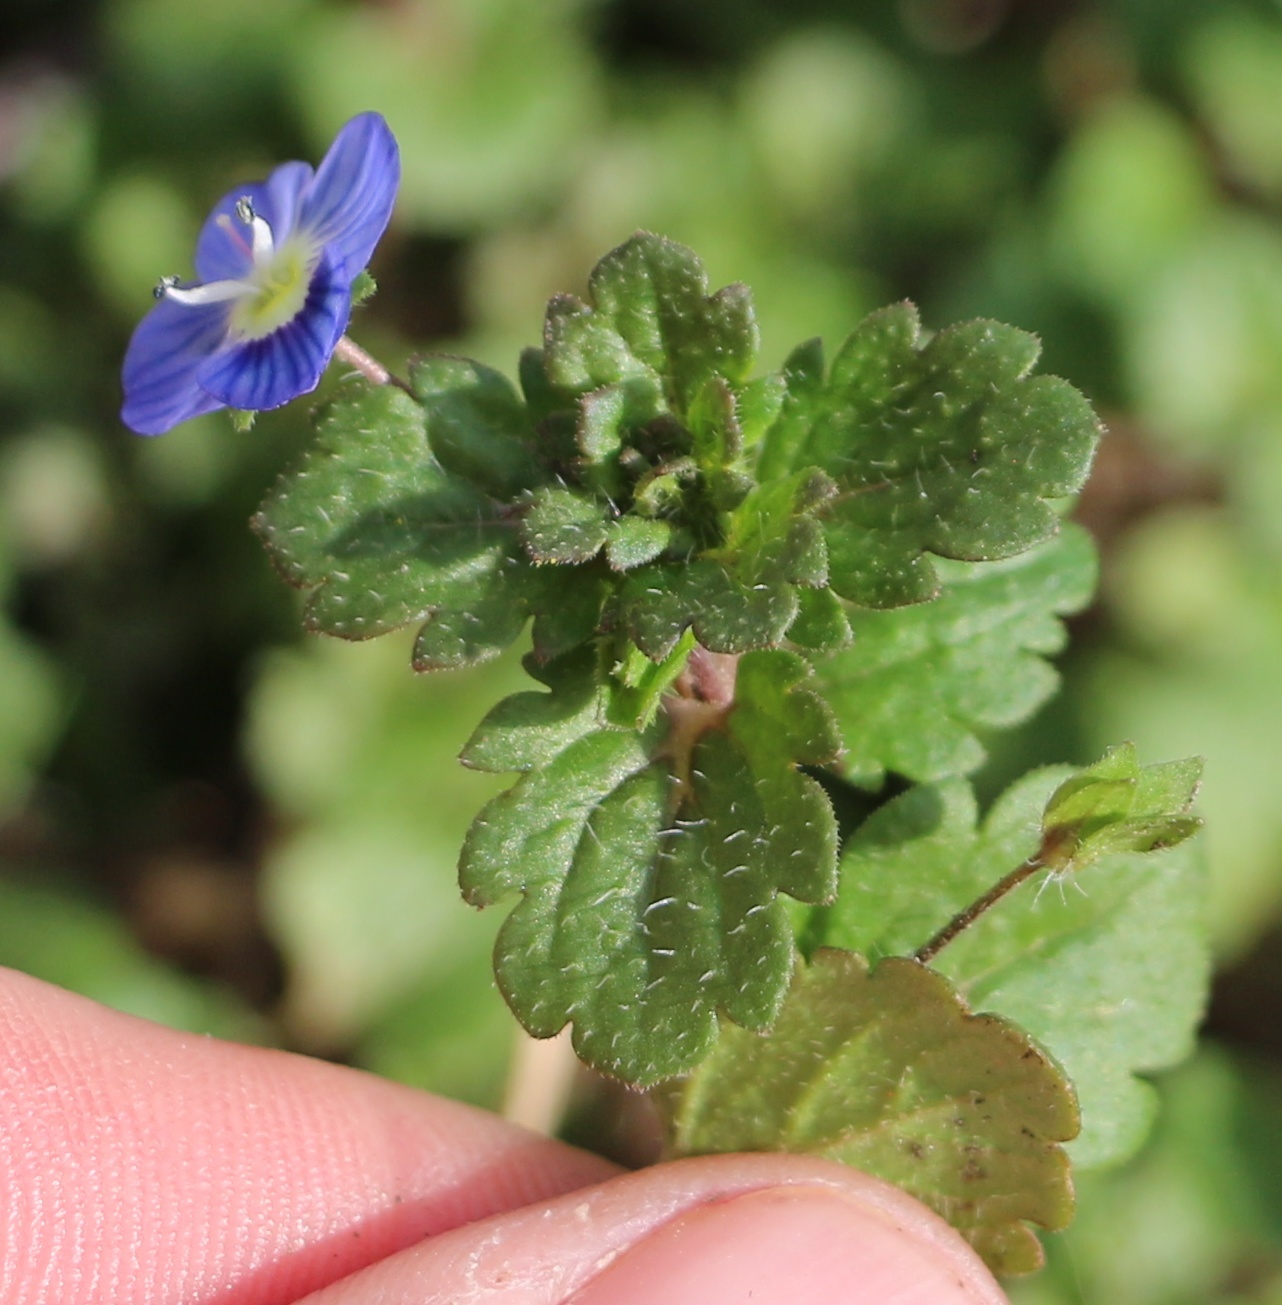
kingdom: Plantae
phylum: Tracheophyta
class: Magnoliopsida
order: Lamiales
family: Plantaginaceae
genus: Veronica
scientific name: Veronica persica
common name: Common field-speedwell
